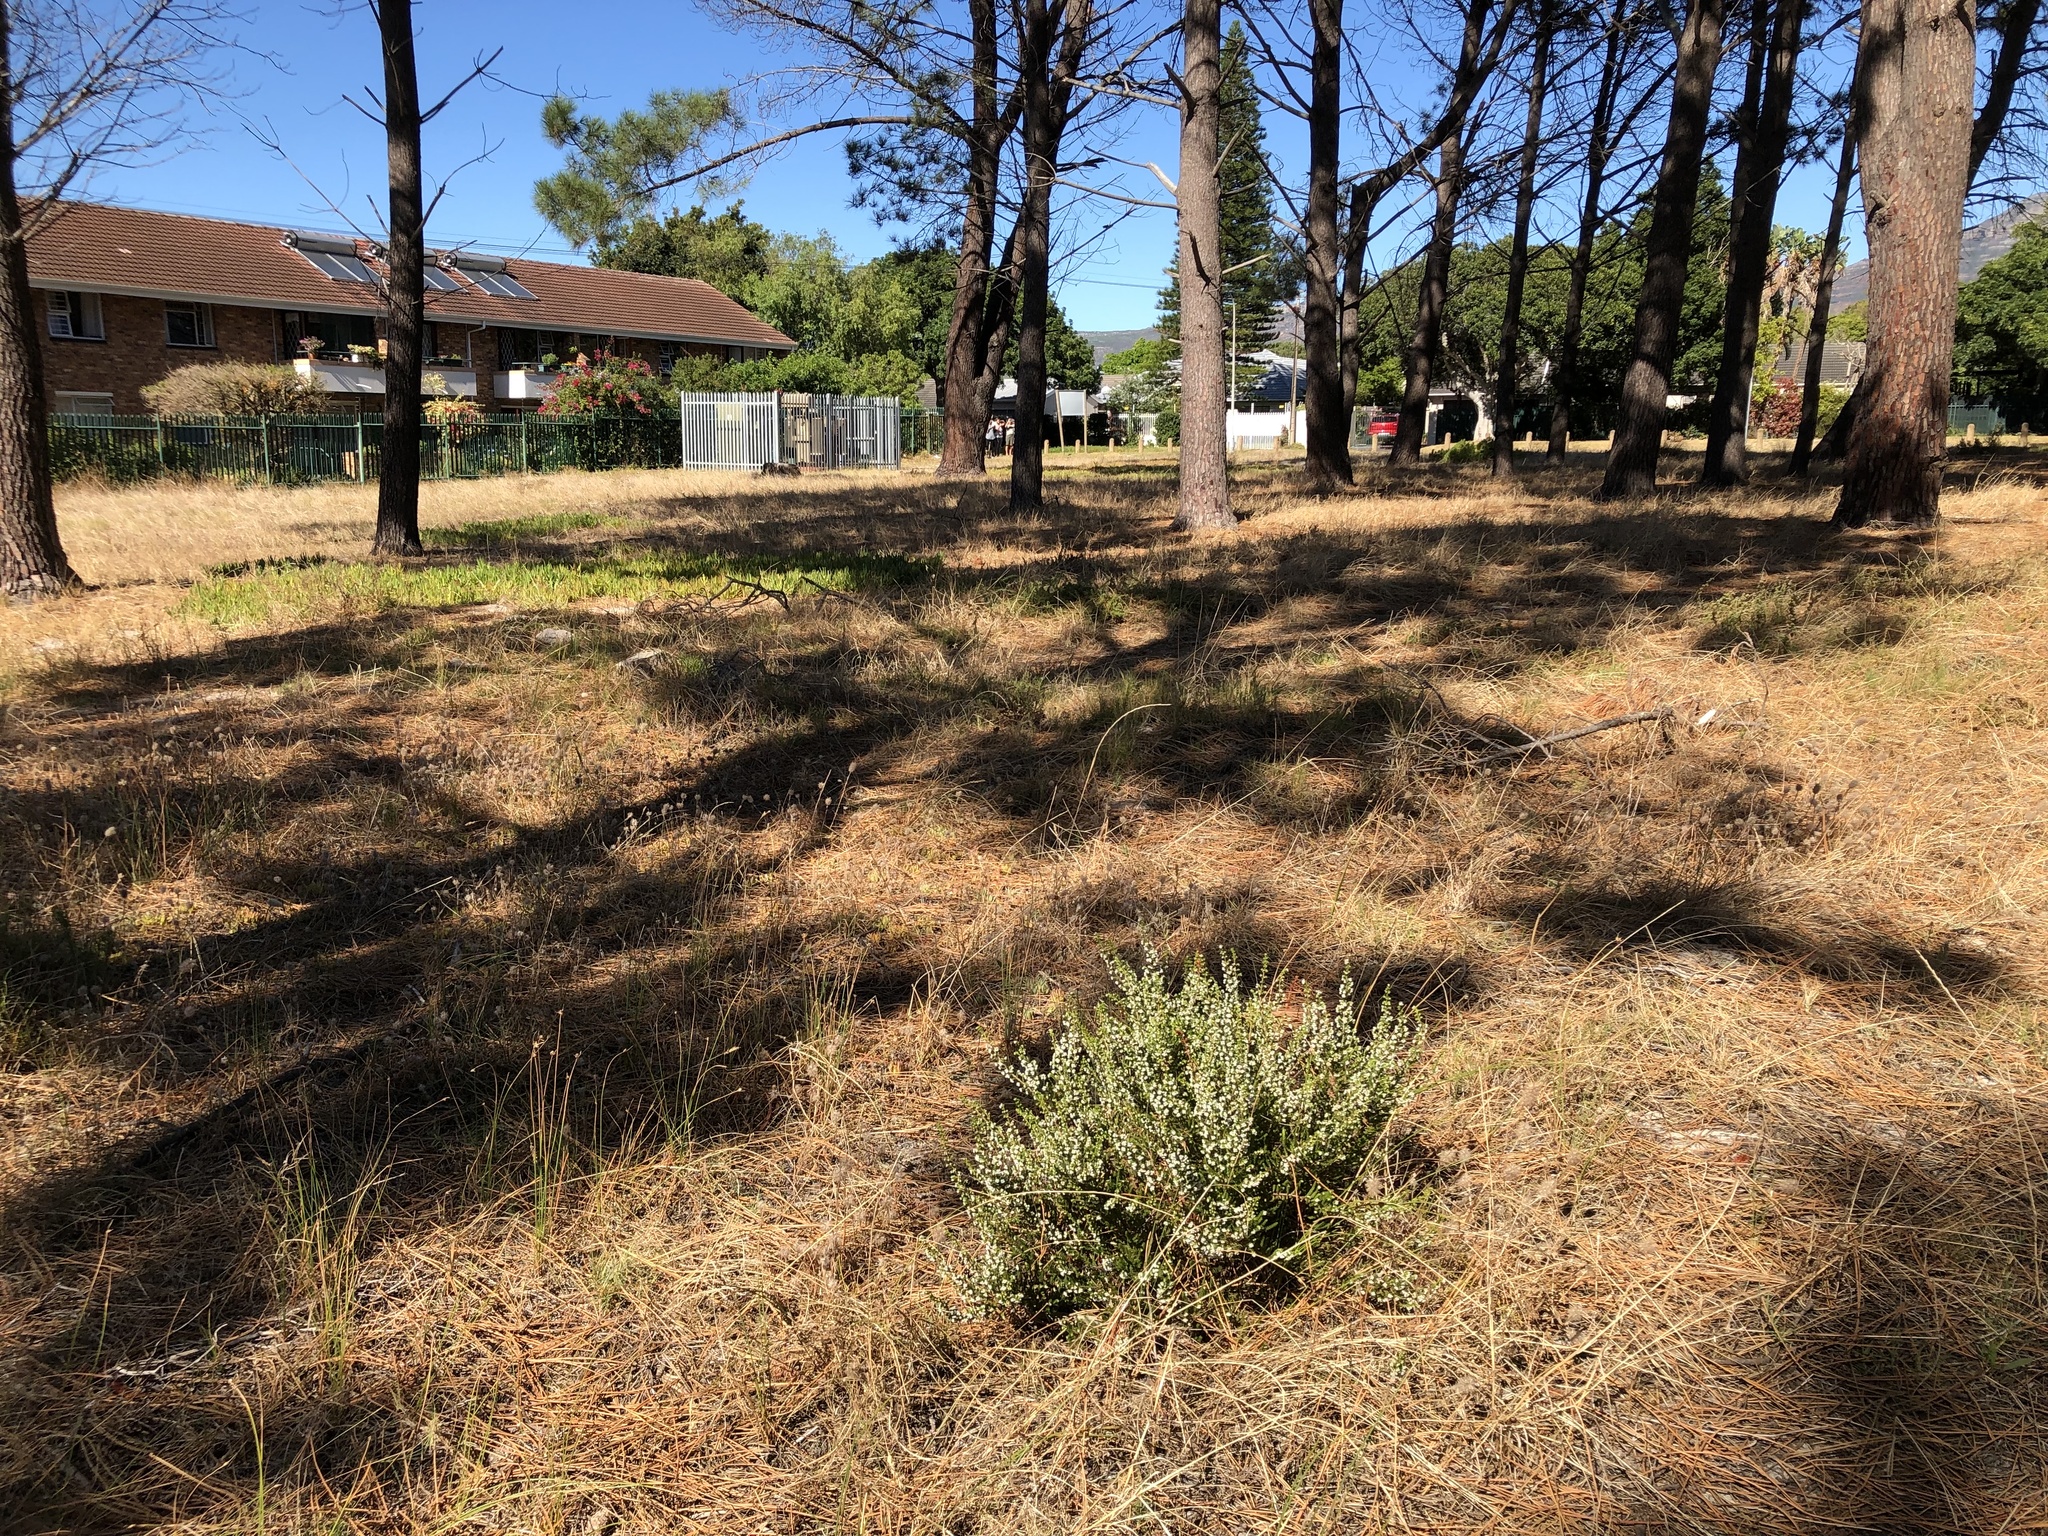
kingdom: Plantae
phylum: Tracheophyta
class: Magnoliopsida
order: Ericales
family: Ericaceae
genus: Erica
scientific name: Erica subdivaricata
